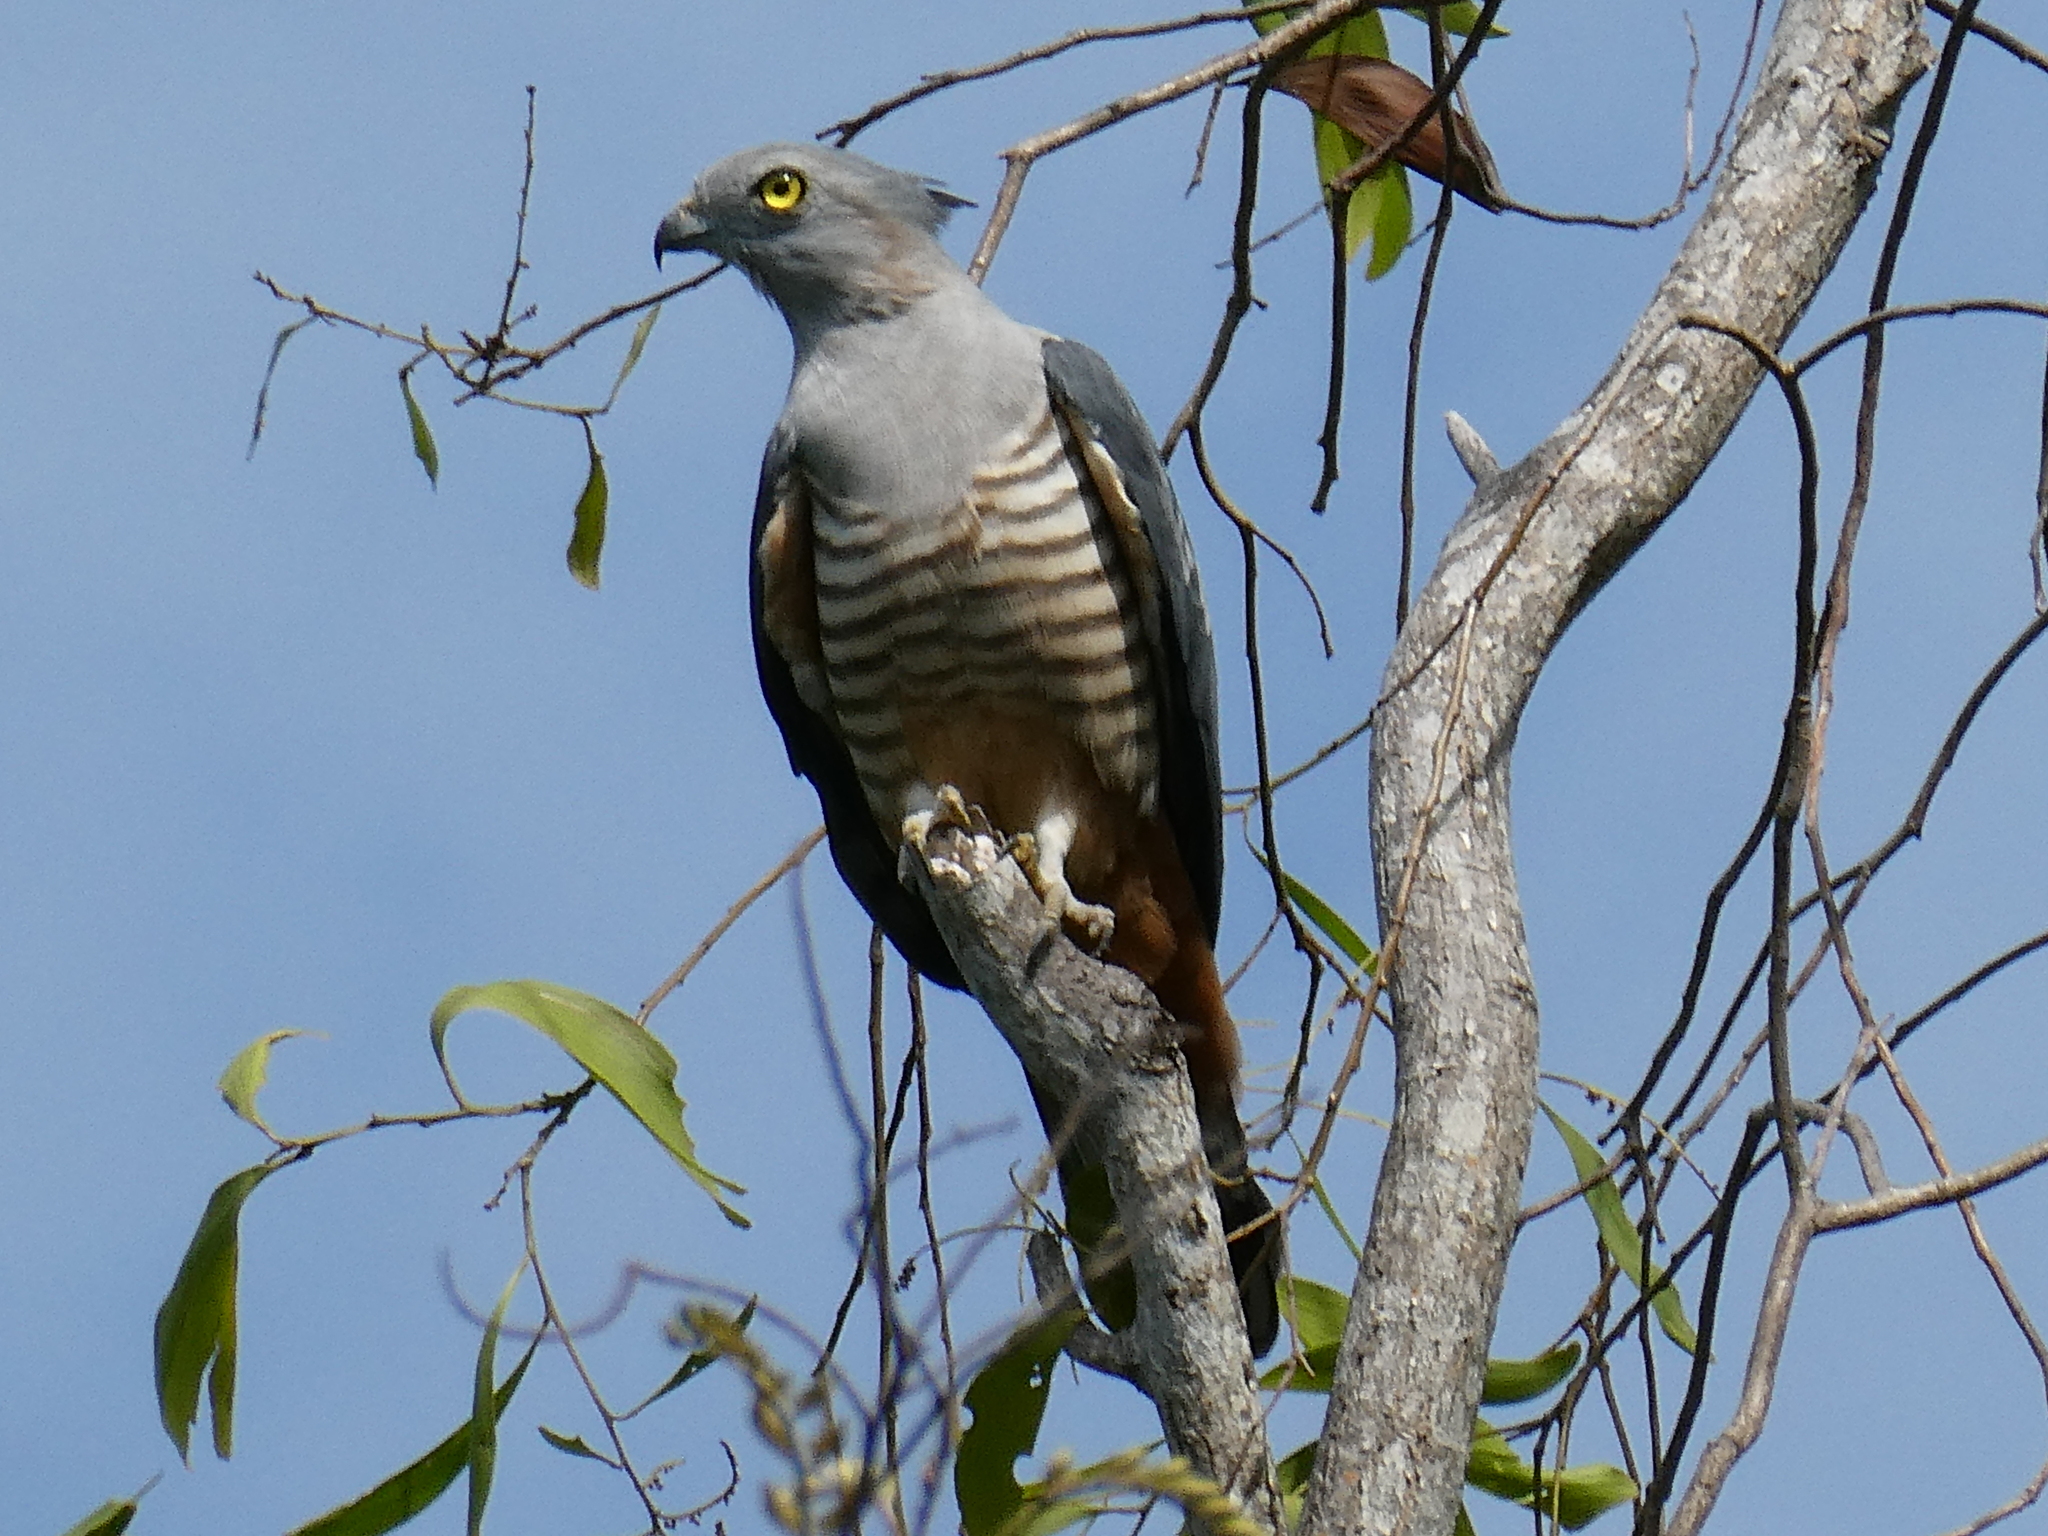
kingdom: Animalia
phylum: Chordata
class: Aves
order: Accipitriformes
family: Accipitridae
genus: Aviceda
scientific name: Aviceda subcristata
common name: Pacific baza
